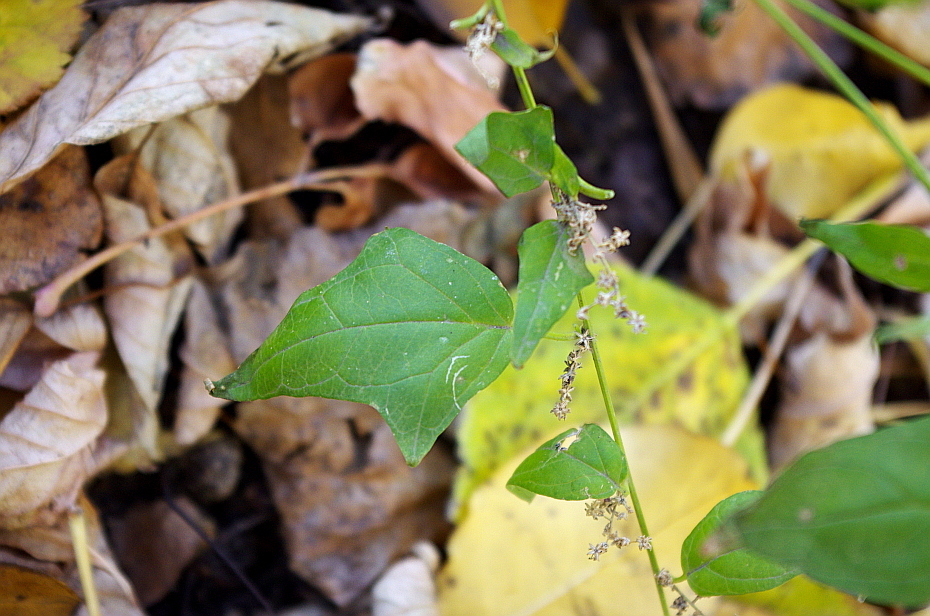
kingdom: Plantae
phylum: Tracheophyta
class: Magnoliopsida
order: Caryophyllales
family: Amaranthaceae
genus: Lipandra
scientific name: Lipandra polysperma
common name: Many-seed goosefoot
